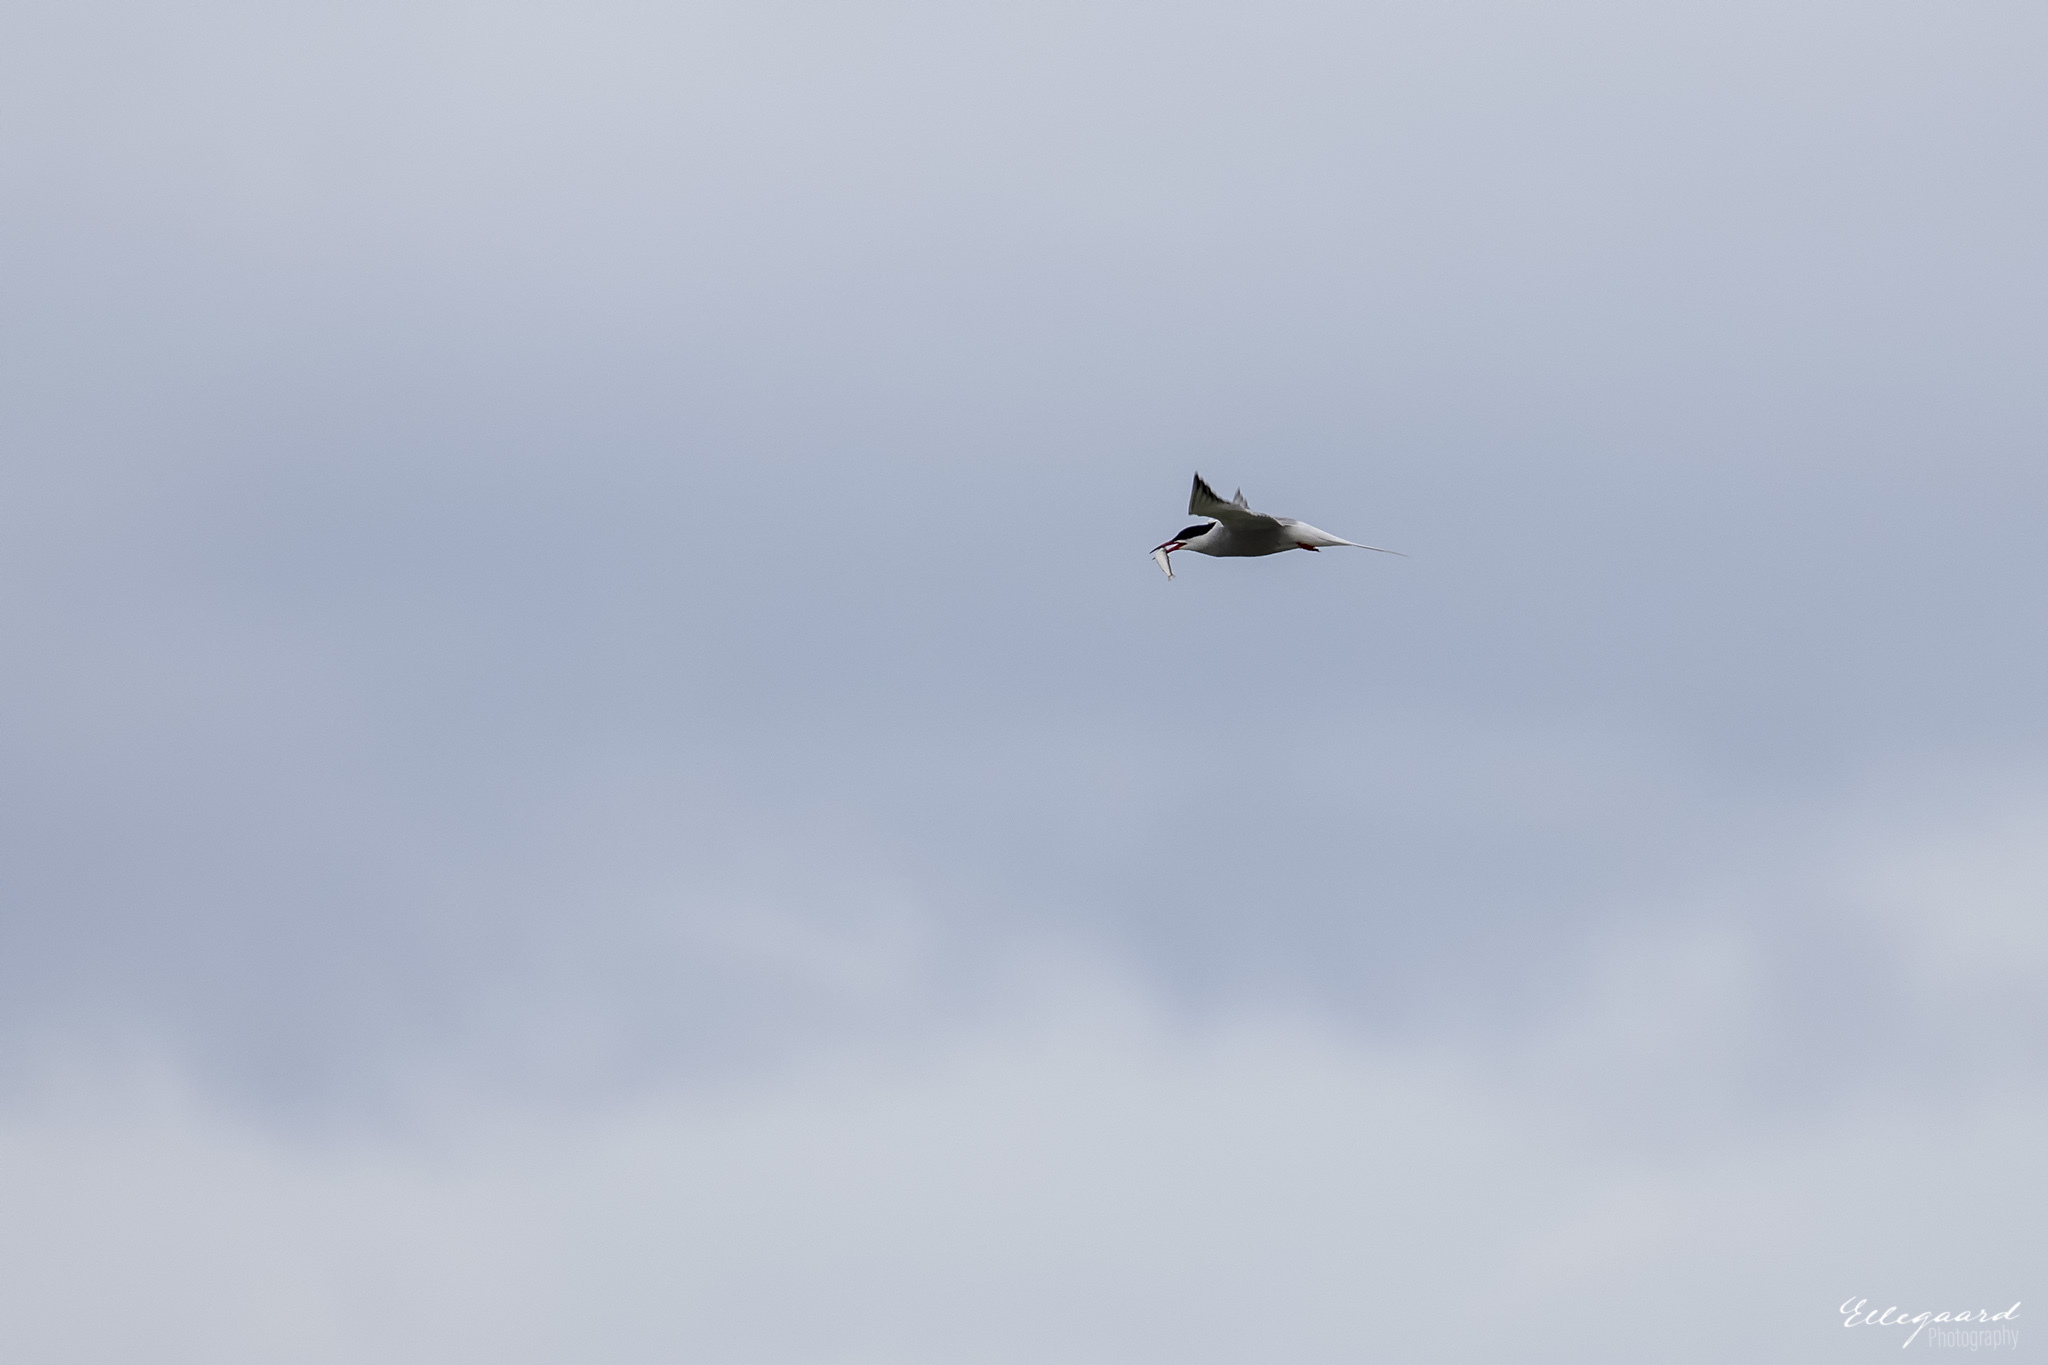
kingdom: Animalia
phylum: Chordata
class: Aves
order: Charadriiformes
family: Laridae
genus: Sterna
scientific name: Sterna hirundo
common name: Common tern
